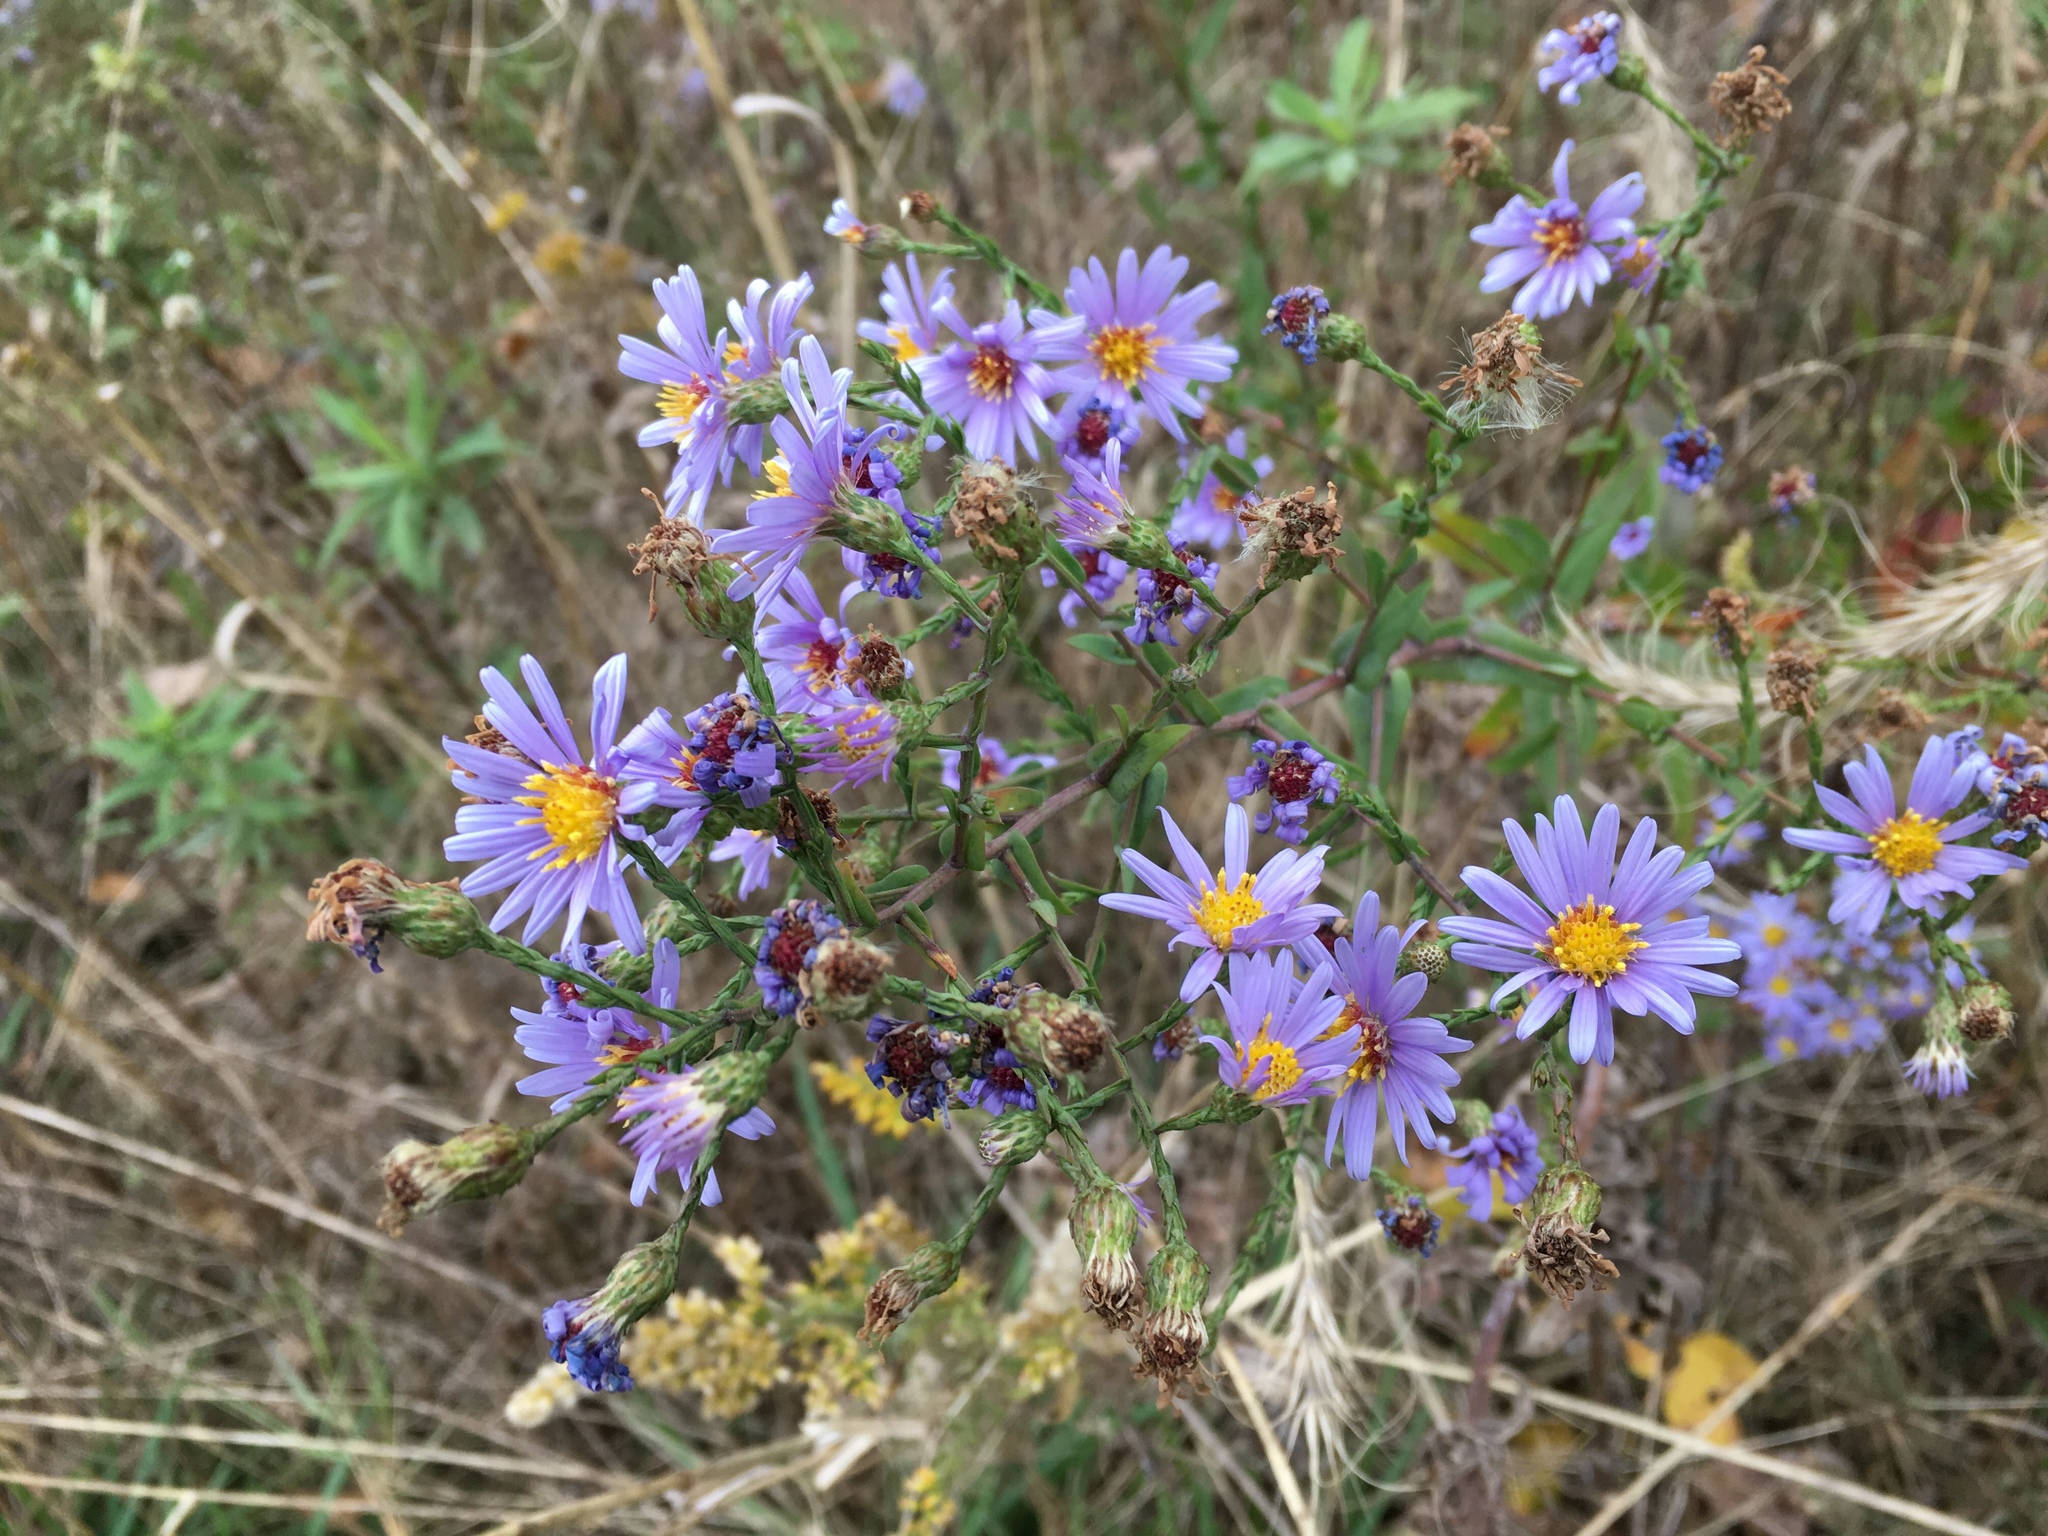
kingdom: Plantae
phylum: Tracheophyta
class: Magnoliopsida
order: Asterales
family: Asteraceae
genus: Symphyotrichum
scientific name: Symphyotrichum laeve
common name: Glaucous aster
